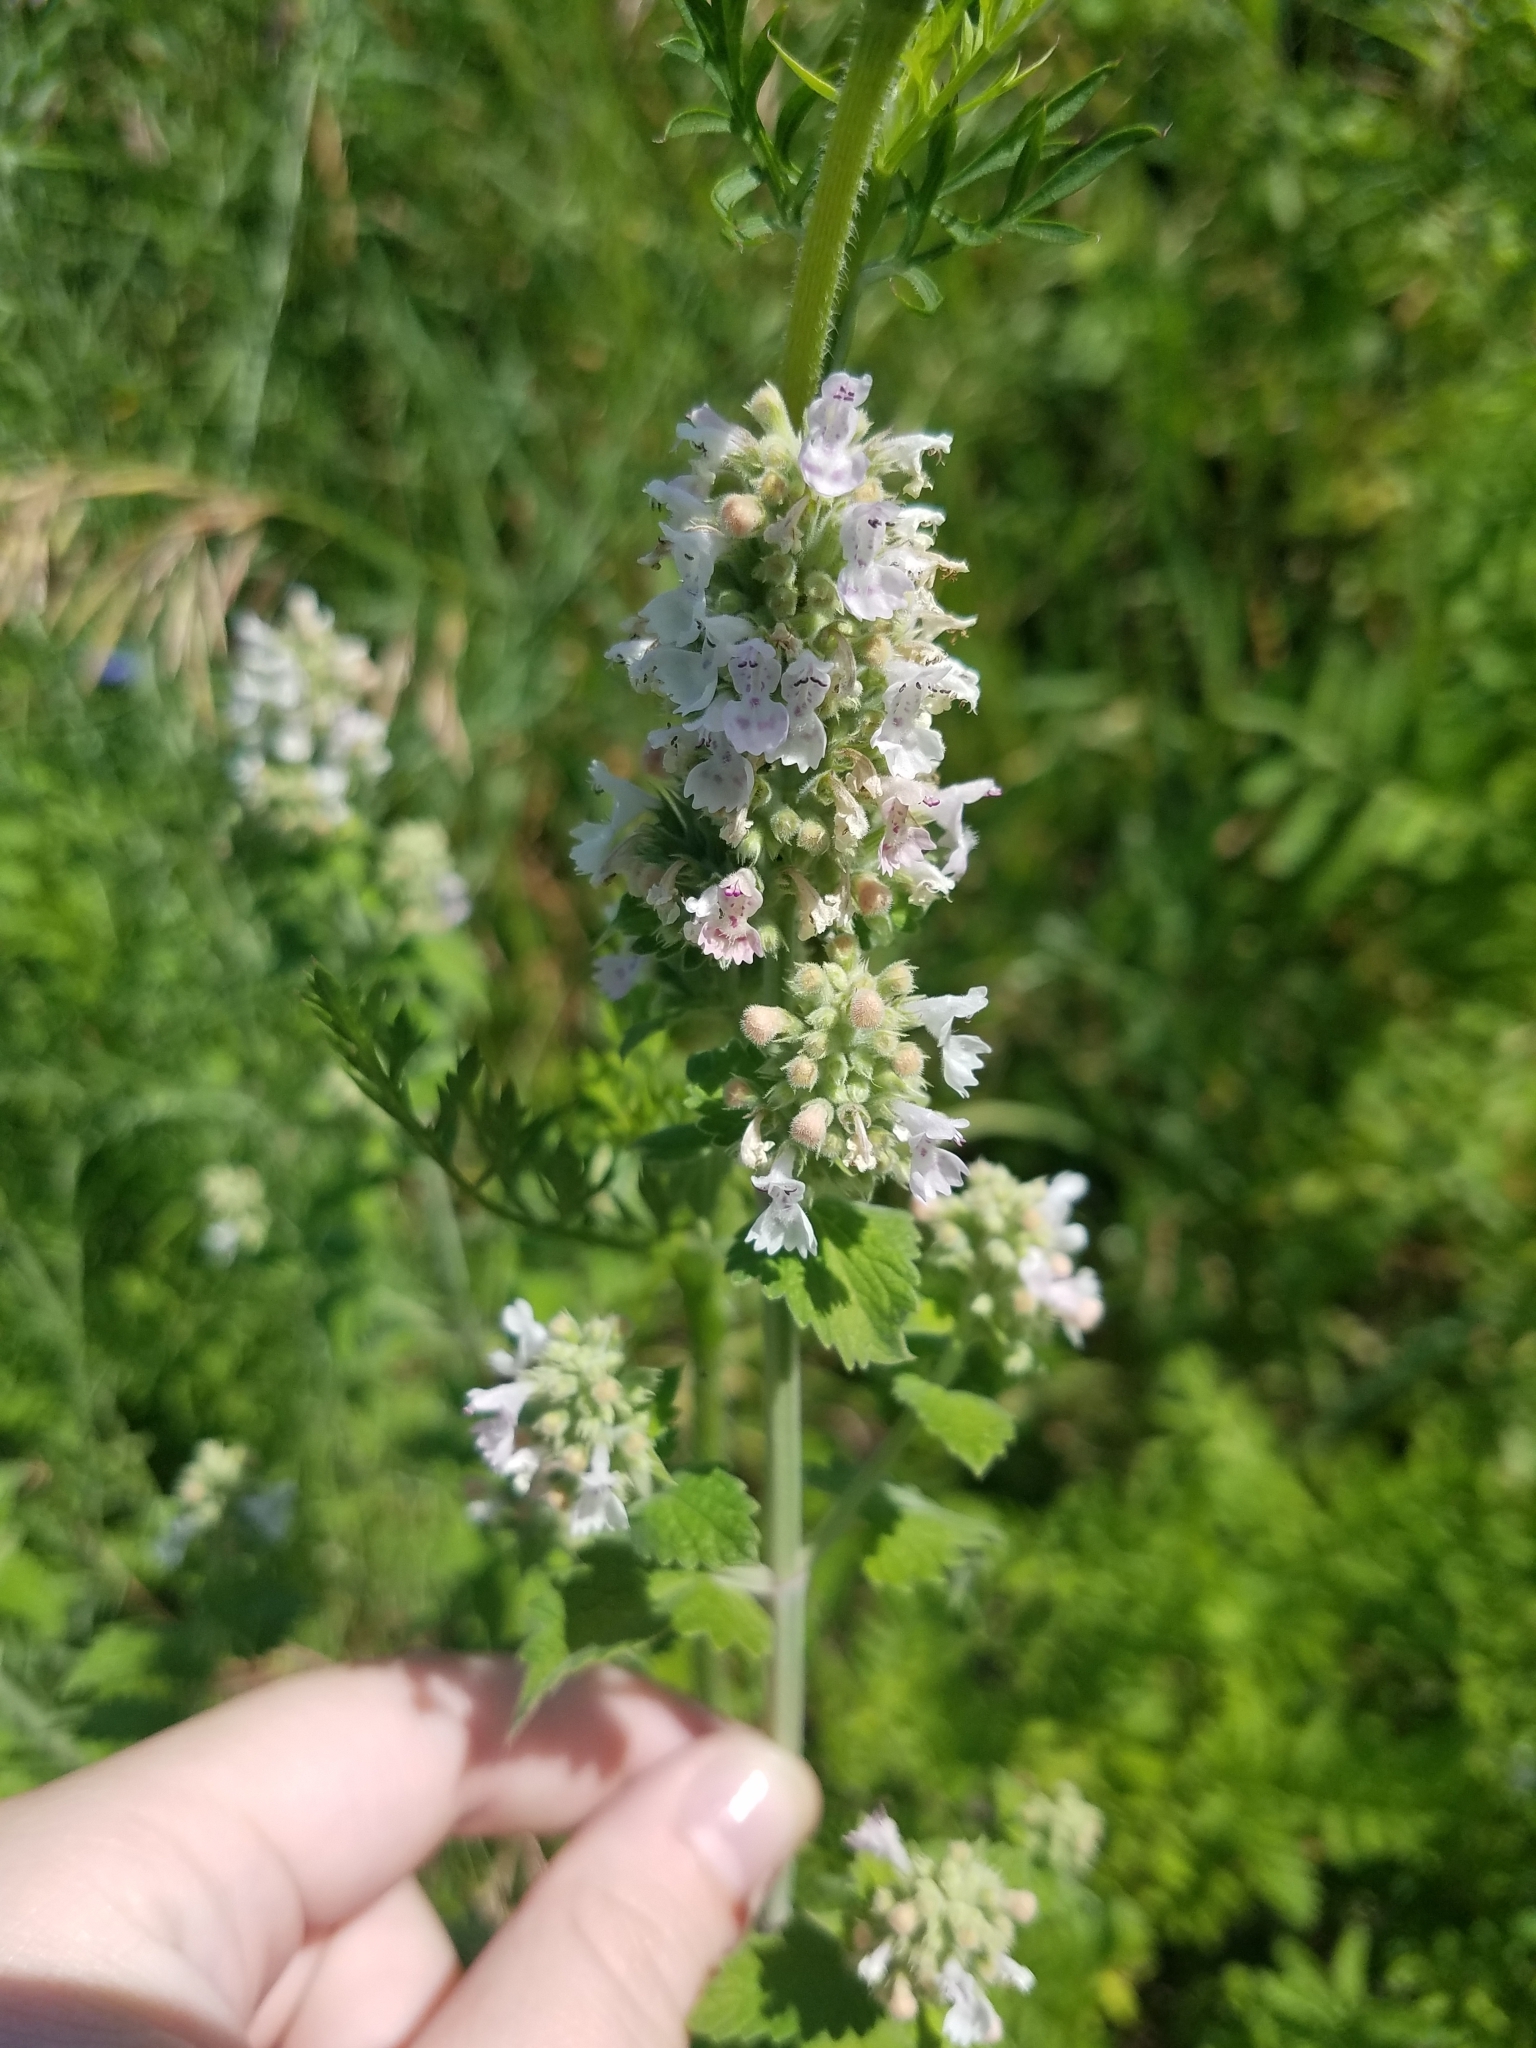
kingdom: Plantae
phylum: Tracheophyta
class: Magnoliopsida
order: Lamiales
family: Lamiaceae
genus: Nepeta
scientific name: Nepeta cataria
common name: Catnip
